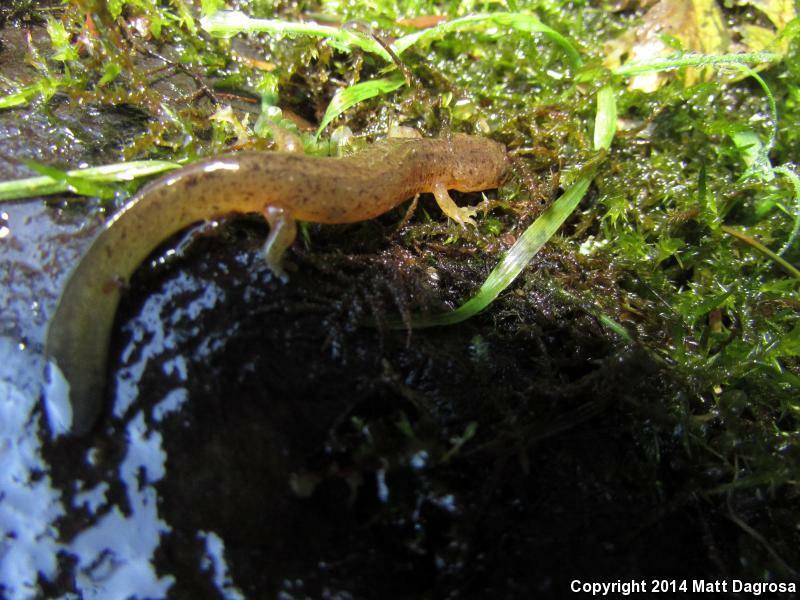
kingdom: Animalia
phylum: Chordata
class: Amphibia
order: Caudata
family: Rhyacotritonidae
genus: Rhyacotriton
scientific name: Rhyacotriton cascadae
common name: Cascade torrent salamander
